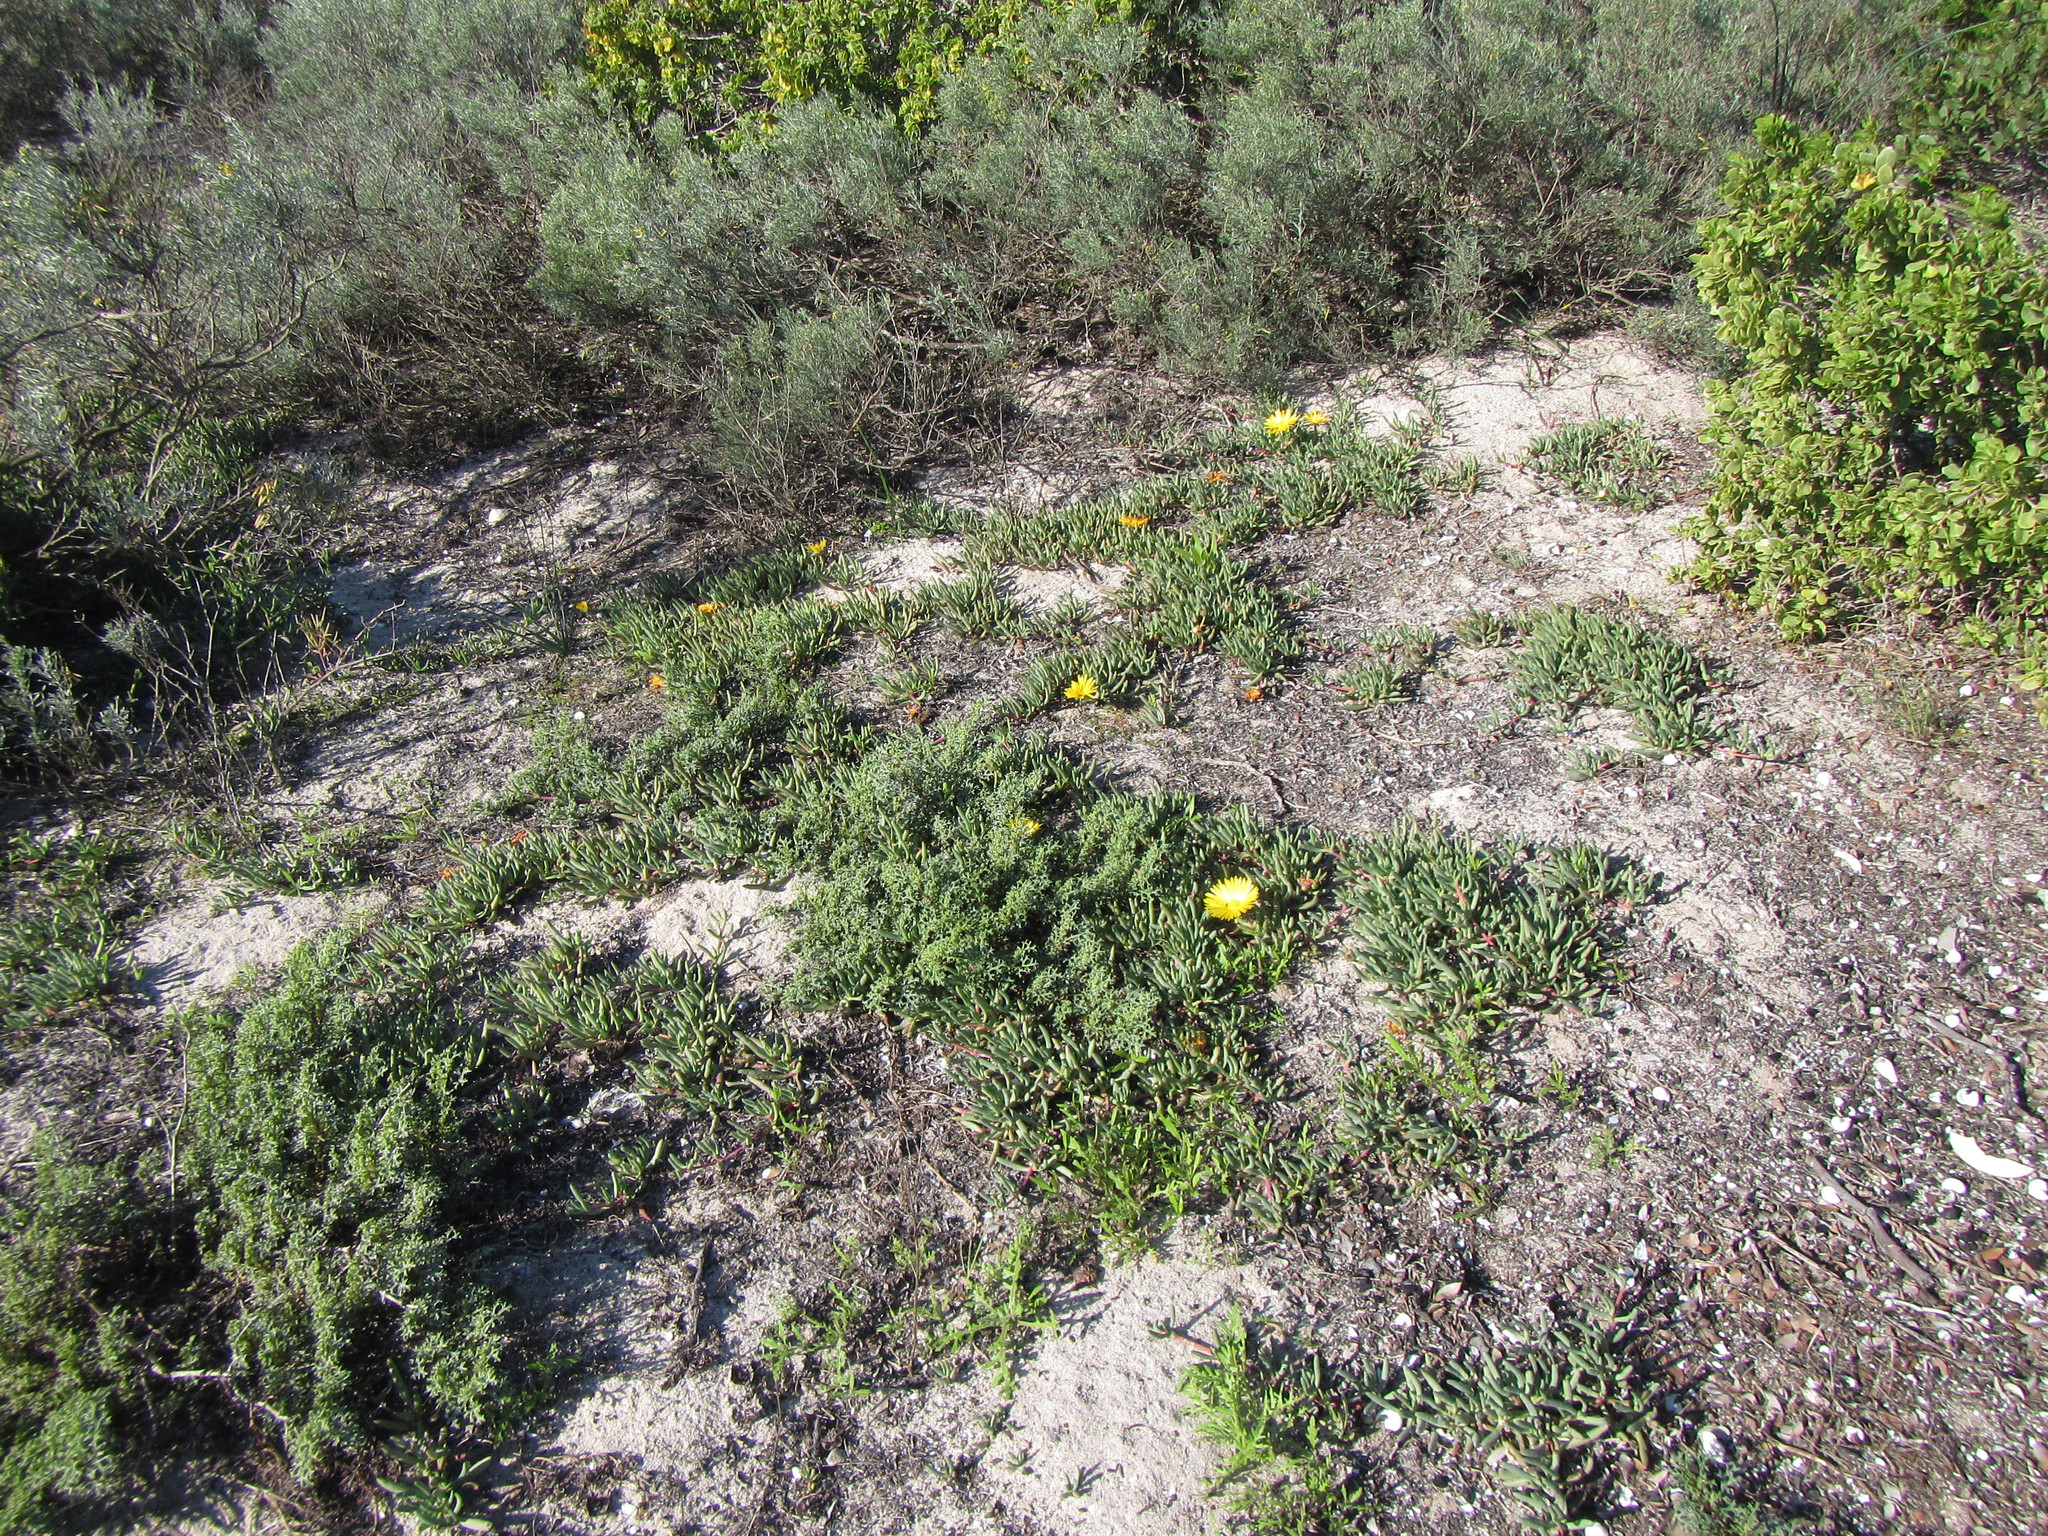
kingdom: Plantae
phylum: Tracheophyta
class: Magnoliopsida
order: Caryophyllales
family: Aizoaceae
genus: Jordaaniella
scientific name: Jordaaniella dubia
